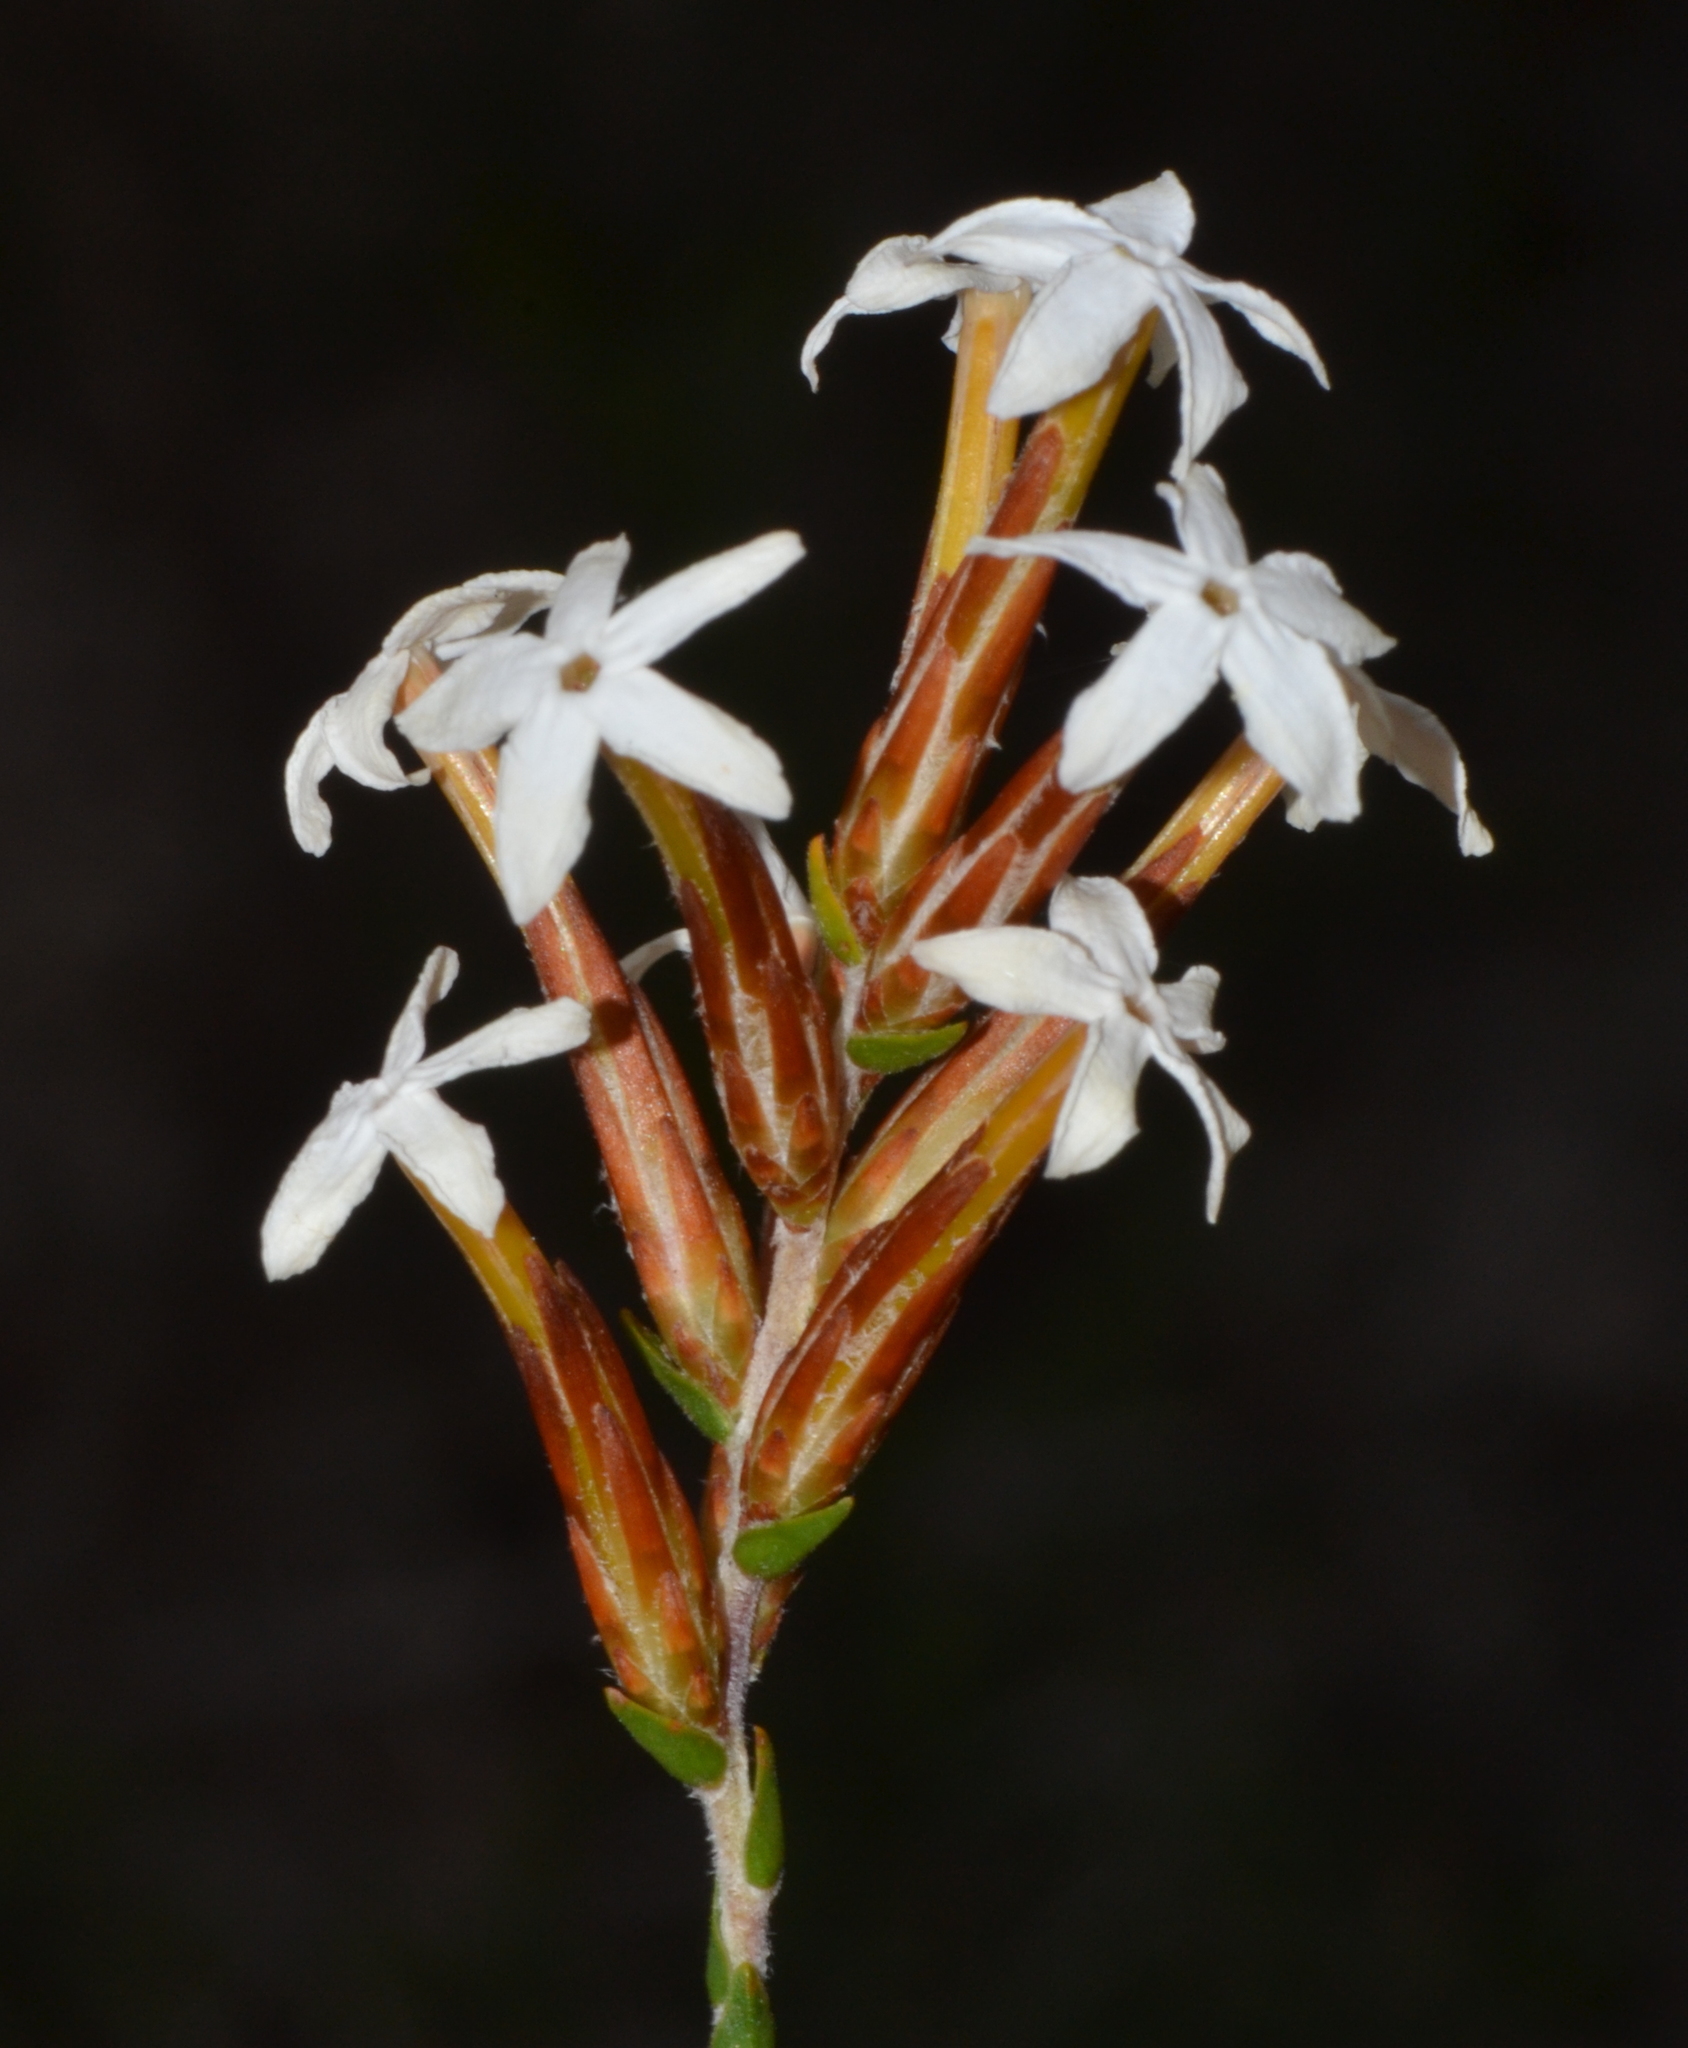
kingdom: Plantae
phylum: Tracheophyta
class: Magnoliopsida
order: Ericales
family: Ericaceae
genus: Lysinema
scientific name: Lysinema pentapetalum
